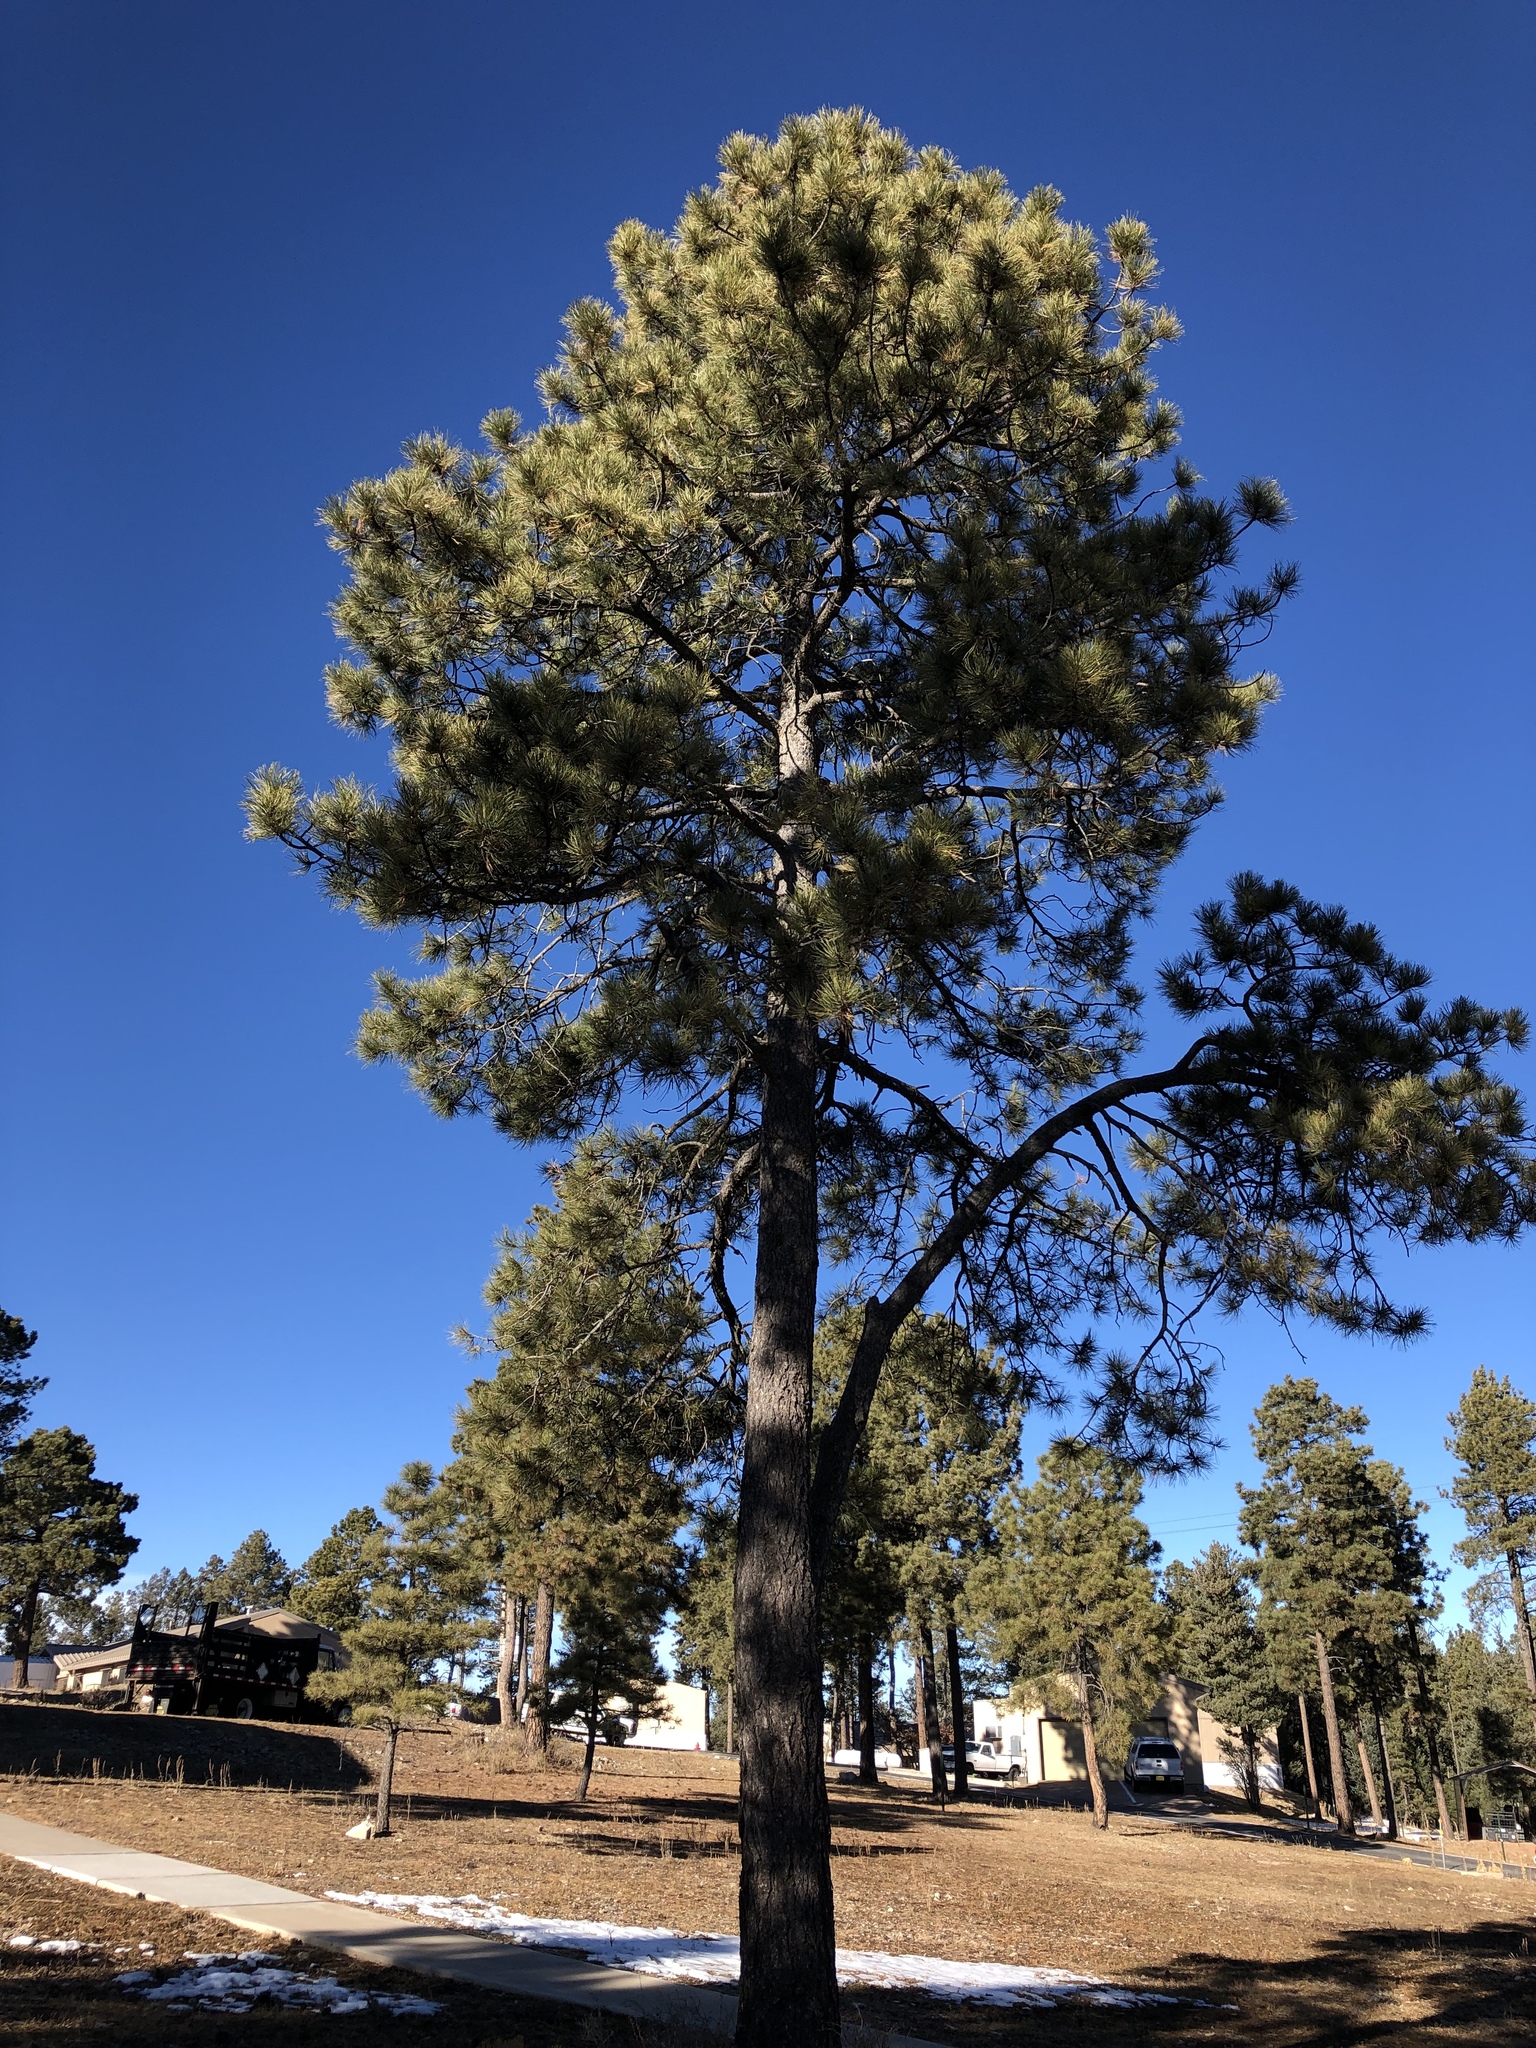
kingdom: Plantae
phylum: Tracheophyta
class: Pinopsida
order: Pinales
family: Pinaceae
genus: Pinus
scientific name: Pinus ponderosa
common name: Western yellow-pine
